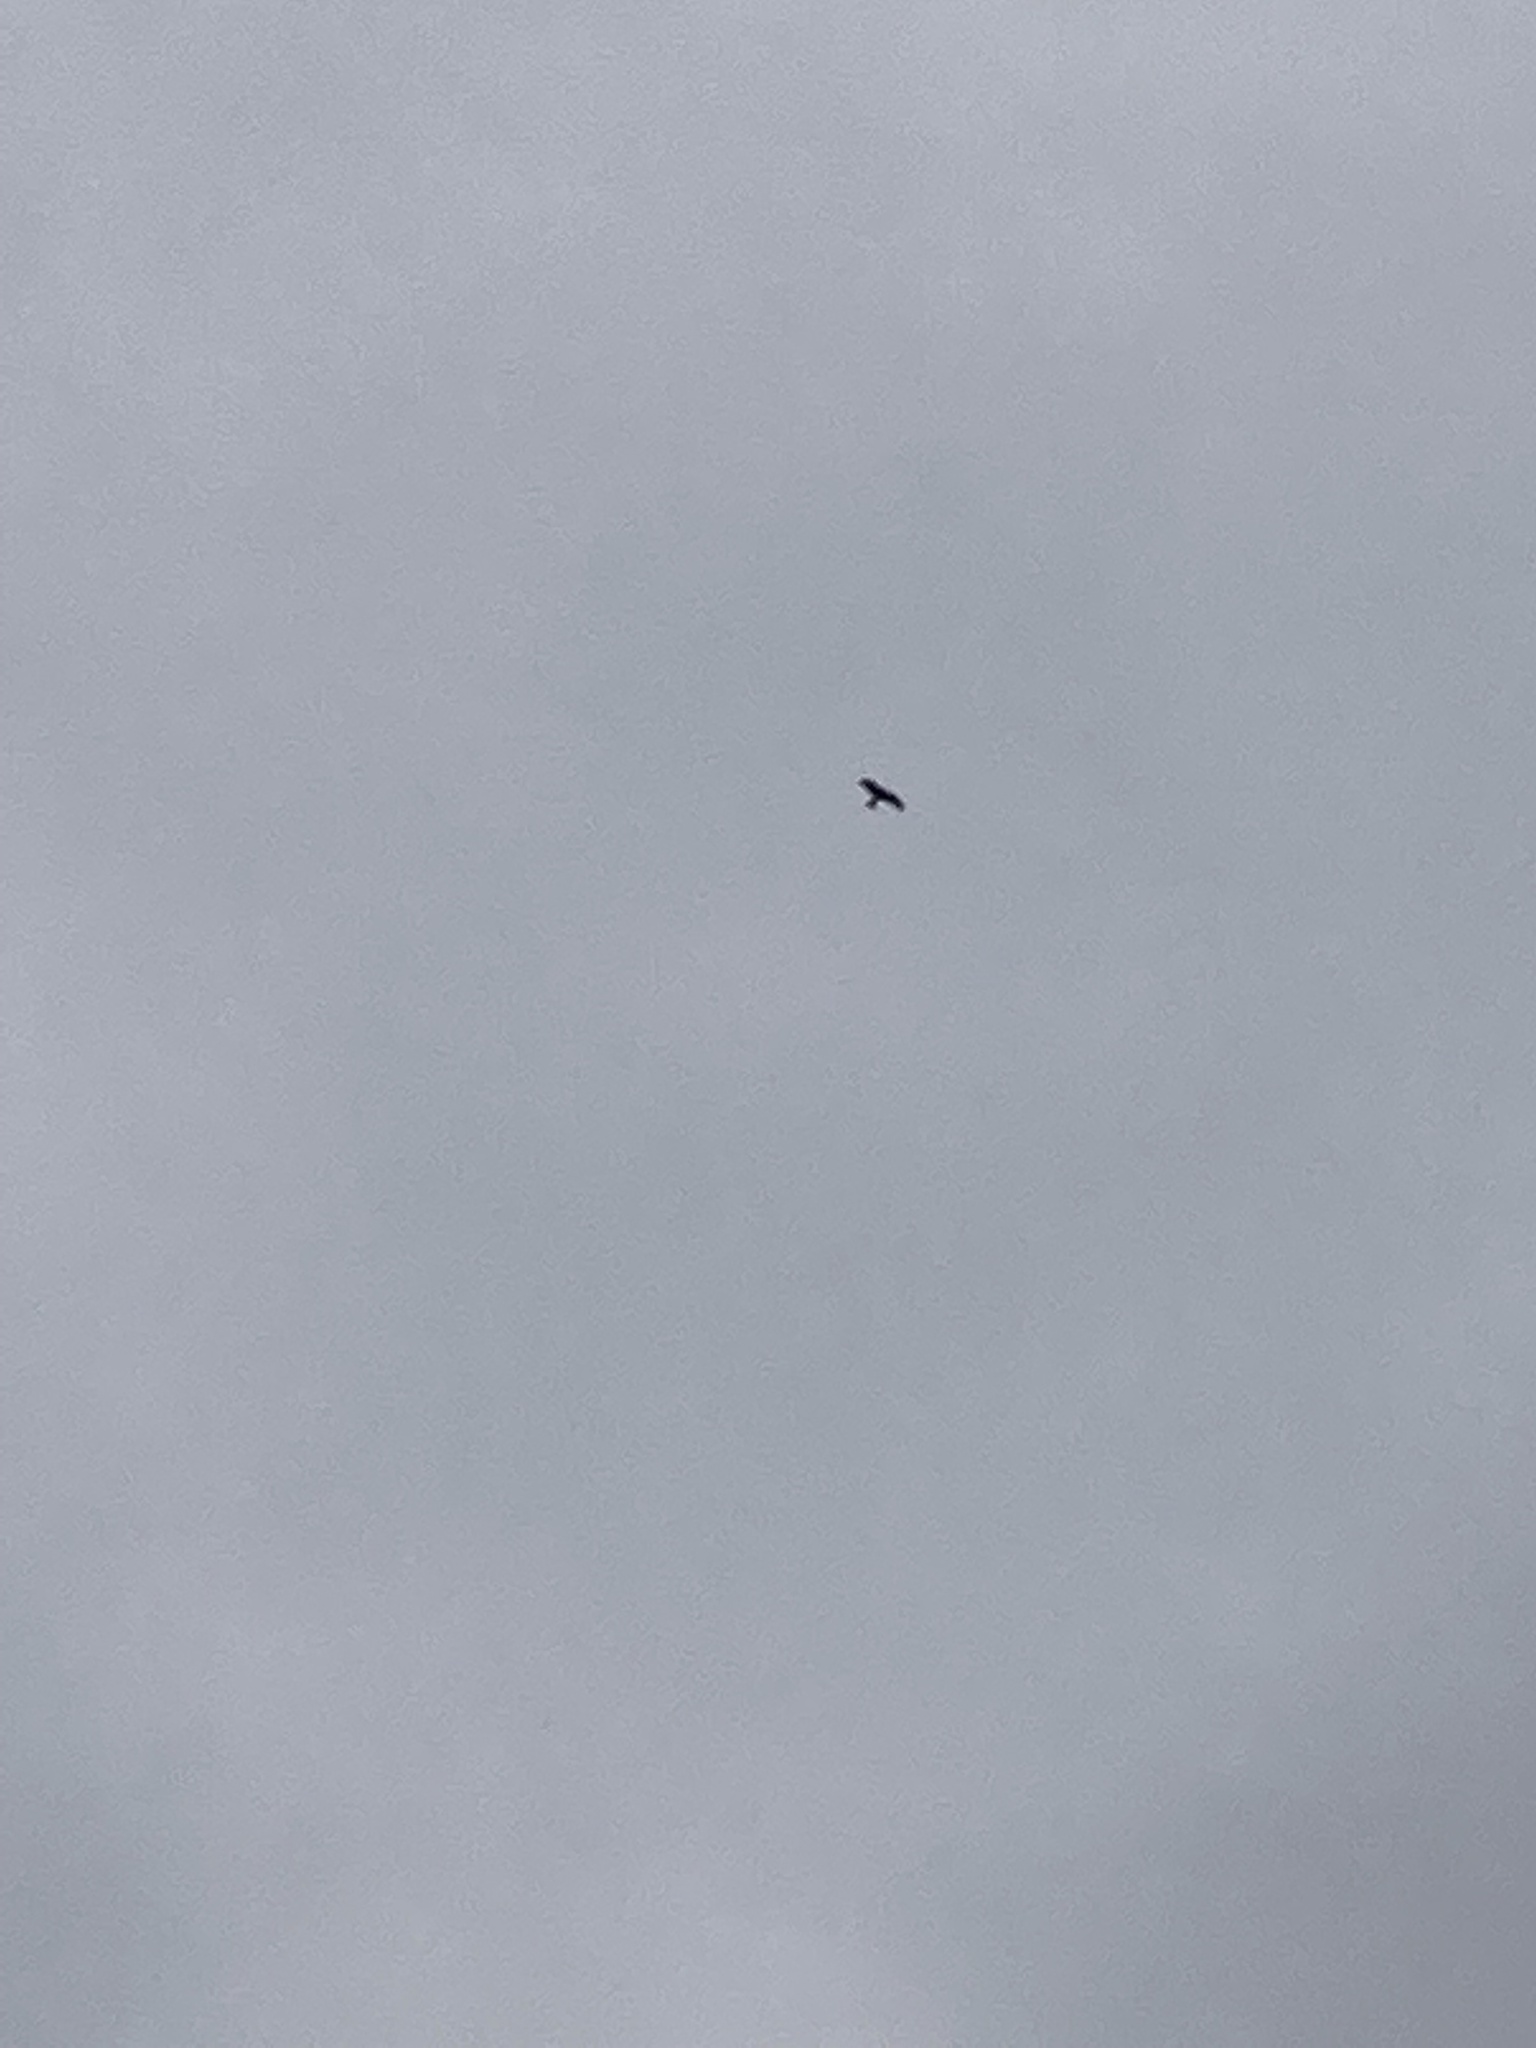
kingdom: Animalia
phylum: Chordata
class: Aves
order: Accipitriformes
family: Accipitridae
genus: Milvus
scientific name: Milvus milvus
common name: Red kite
